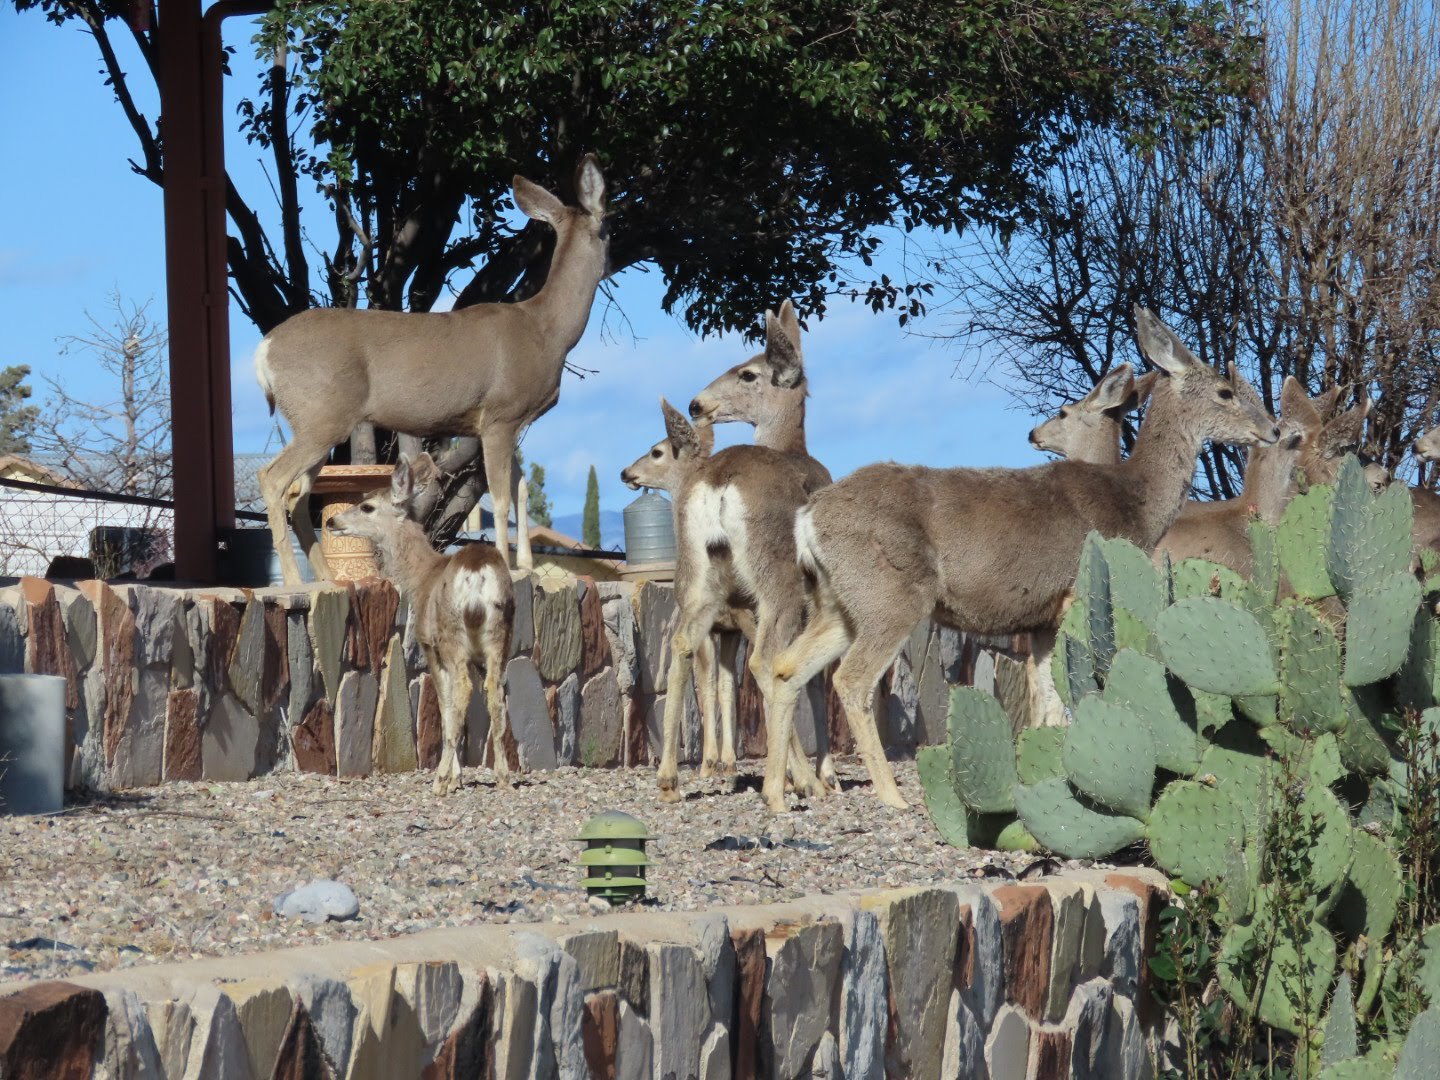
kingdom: Animalia
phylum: Chordata
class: Mammalia
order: Artiodactyla
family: Cervidae
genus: Odocoileus
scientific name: Odocoileus hemionus
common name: Mule deer
